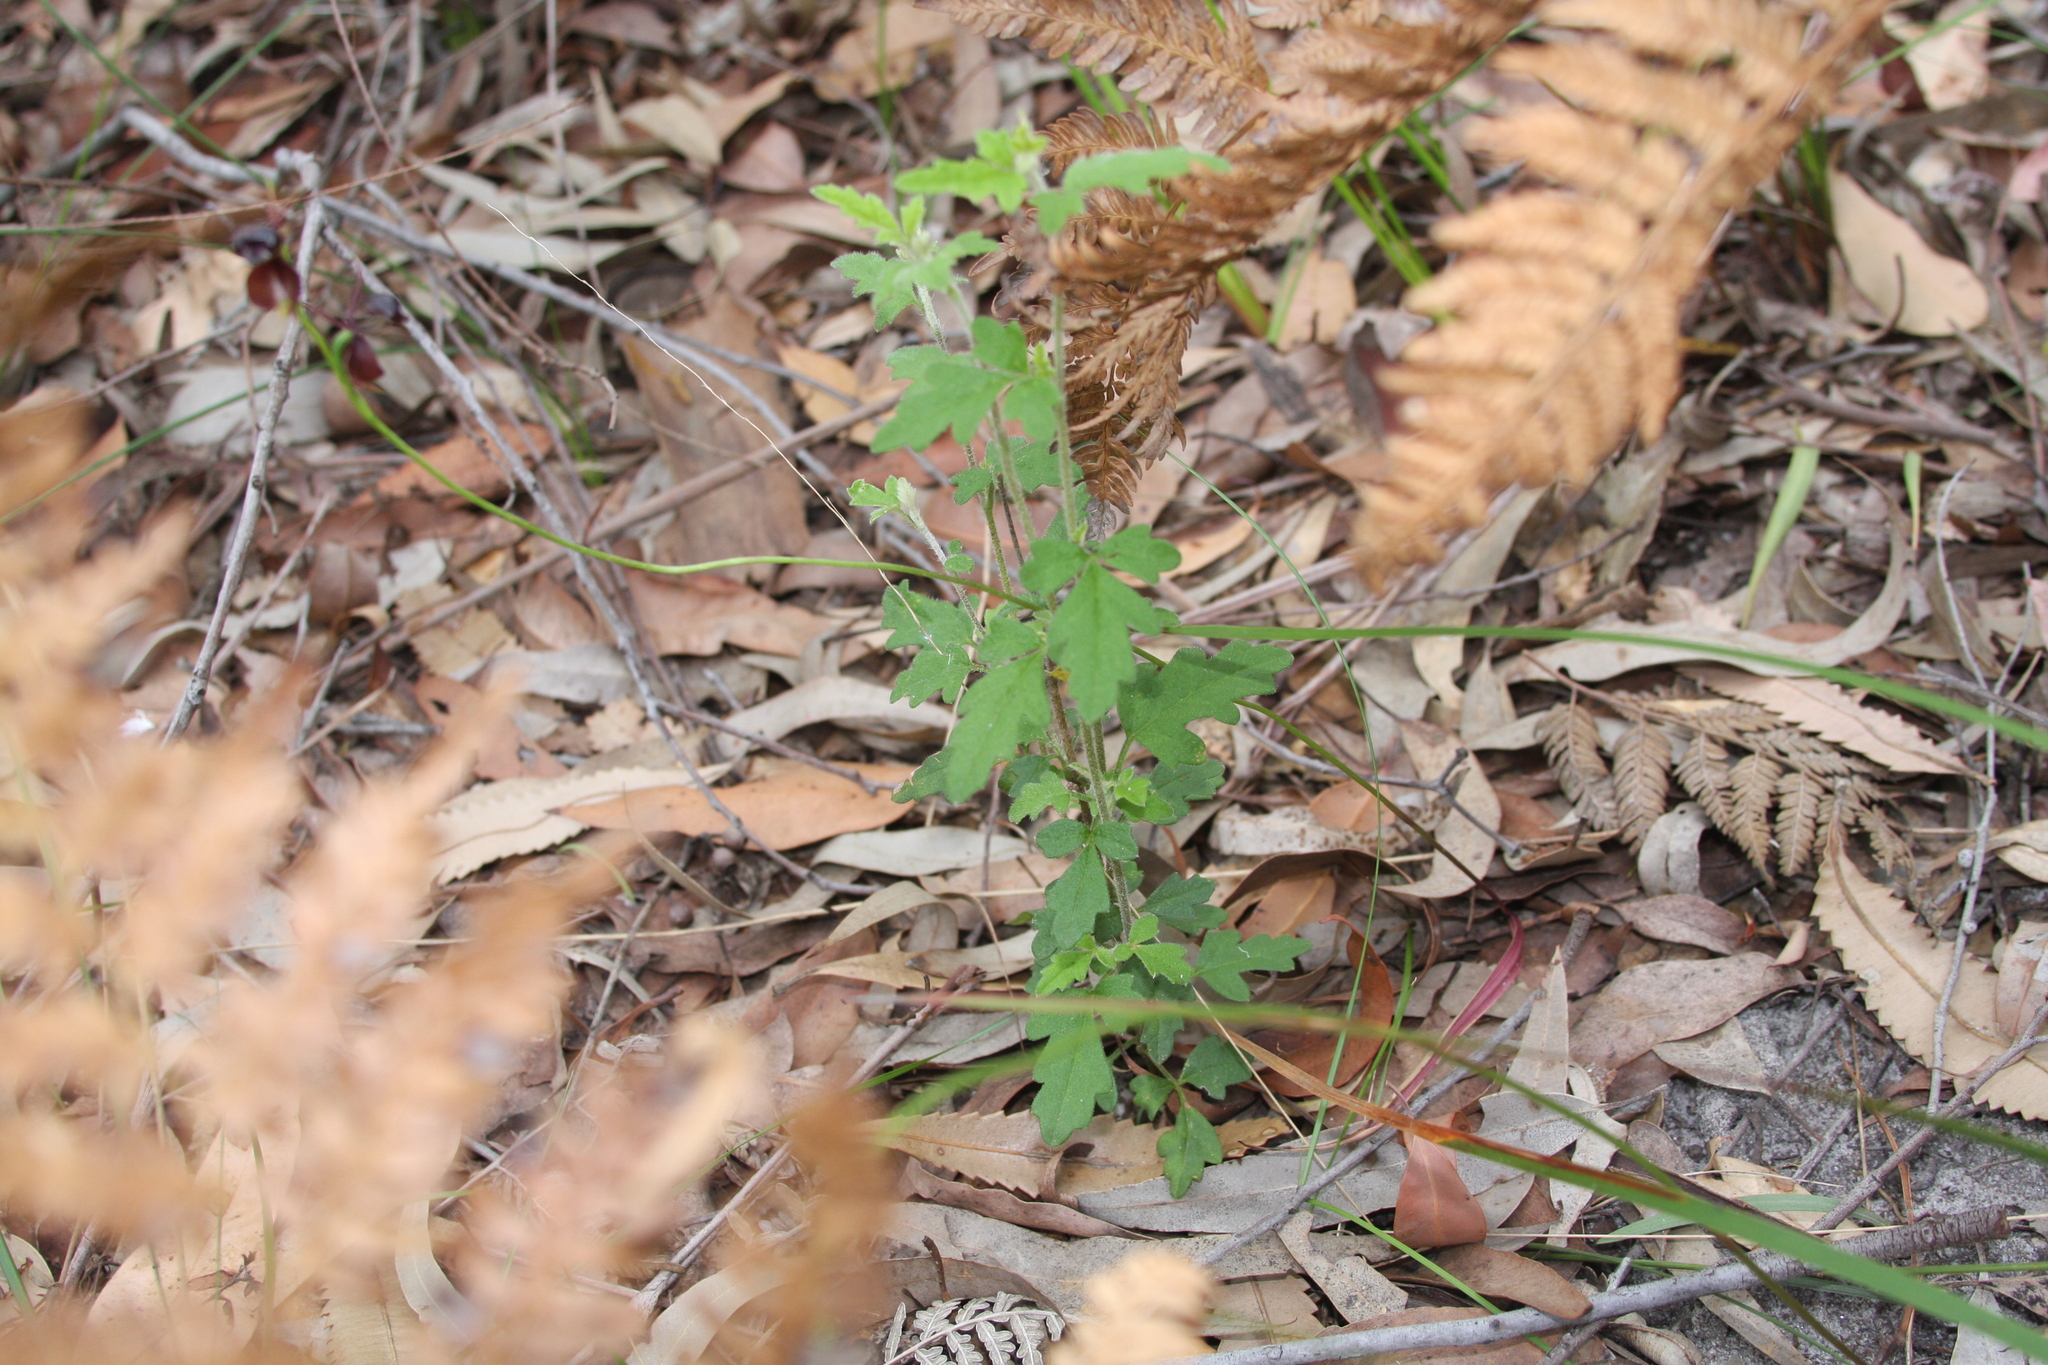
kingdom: Plantae
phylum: Tracheophyta
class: Magnoliopsida
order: Apiales
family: Apiaceae
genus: Xanthosia
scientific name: Xanthosia pilosa
